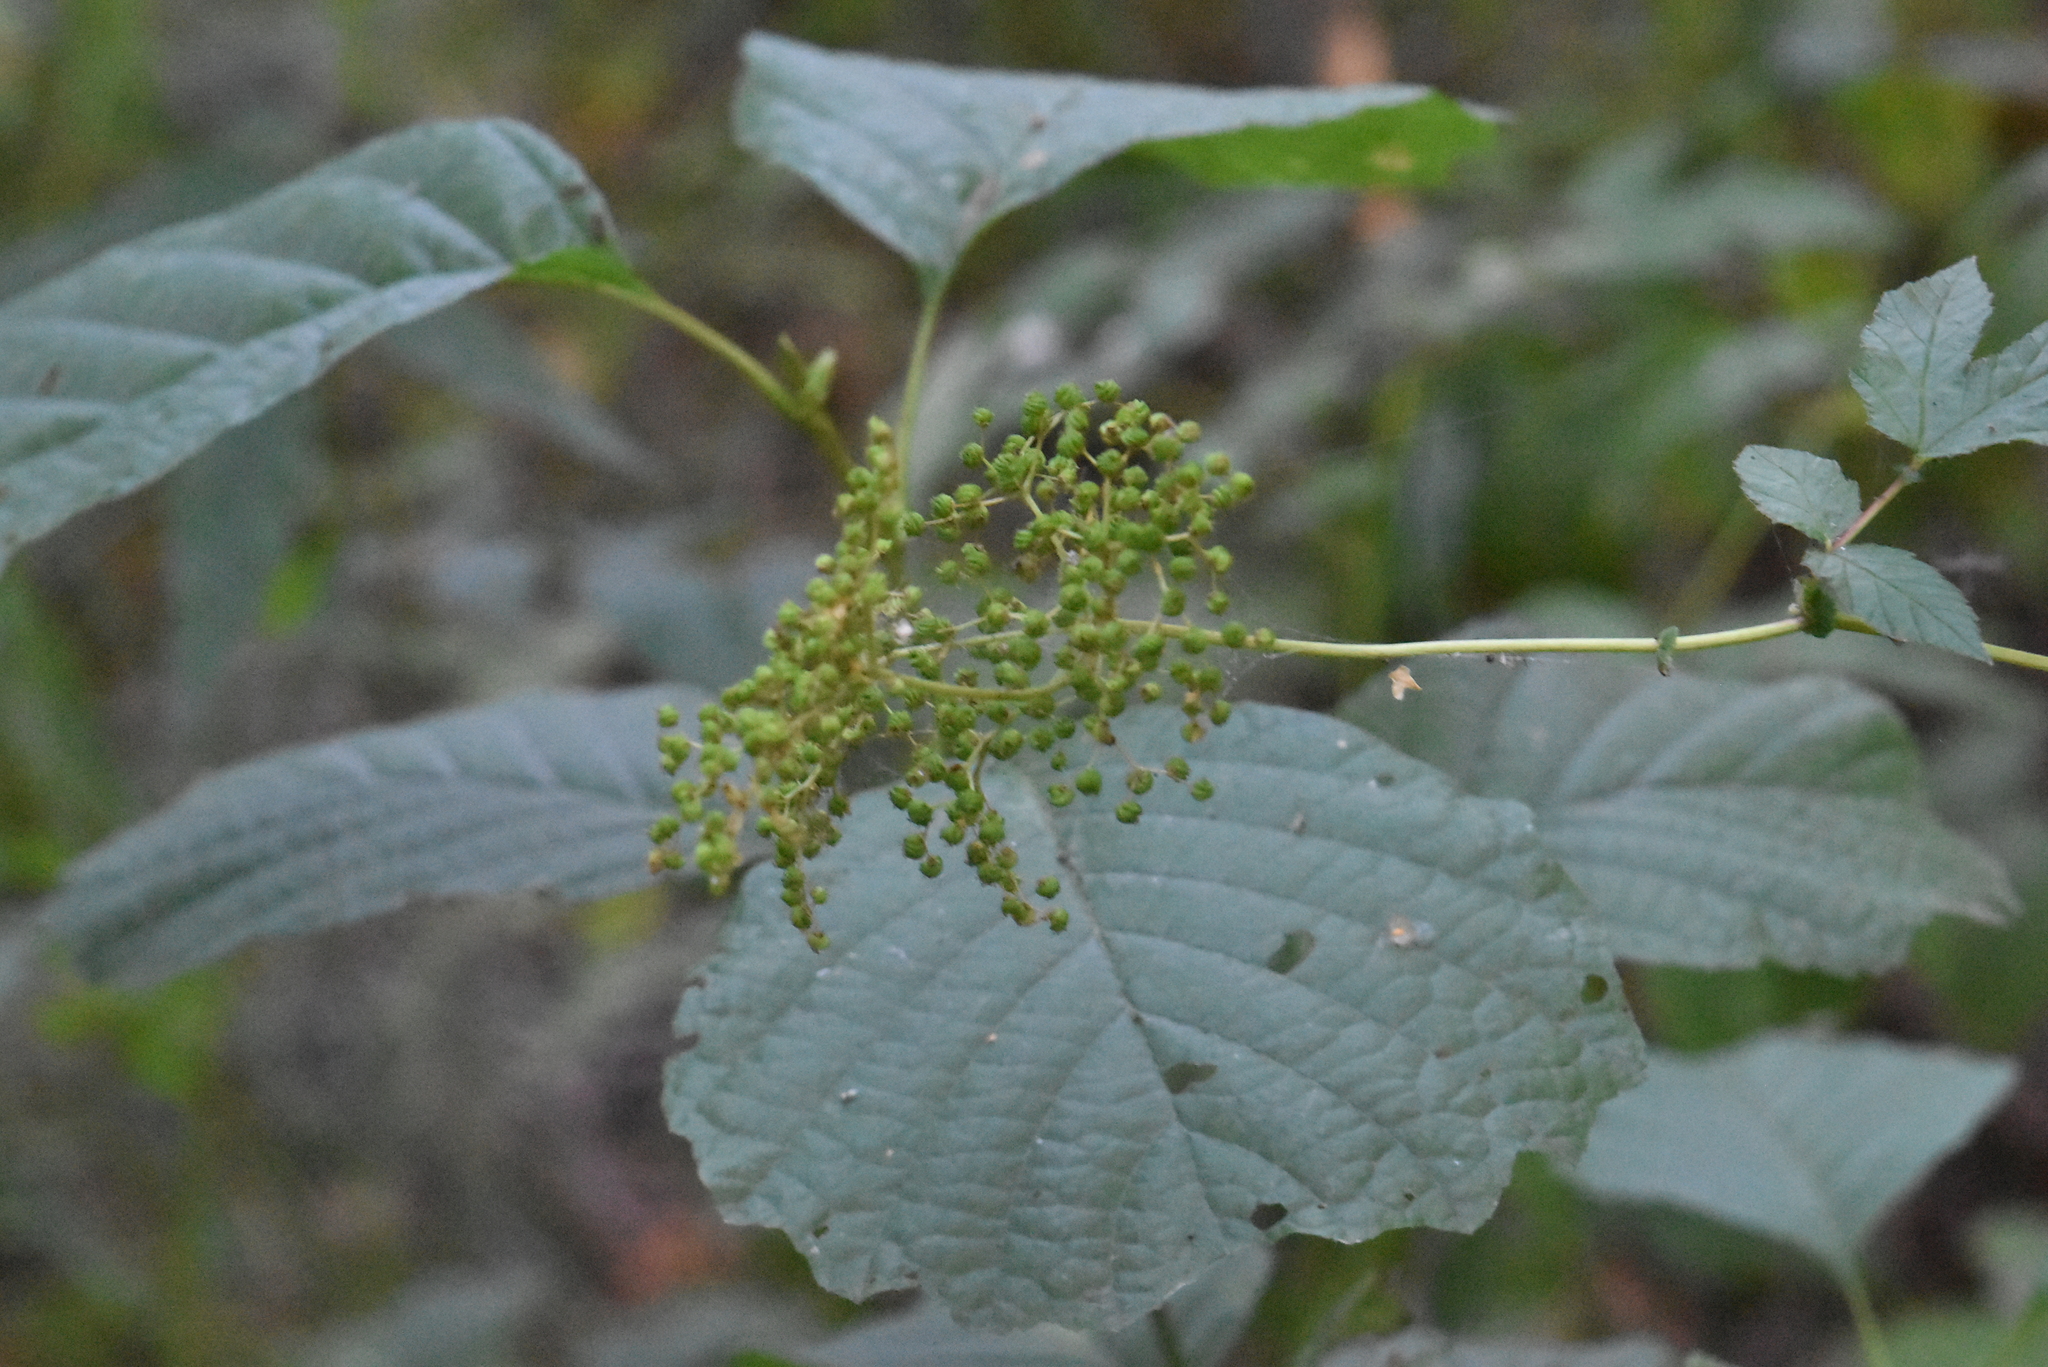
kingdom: Plantae
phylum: Tracheophyta
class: Magnoliopsida
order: Rosales
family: Rosaceae
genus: Filipendula
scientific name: Filipendula ulmaria
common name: Meadowsweet
